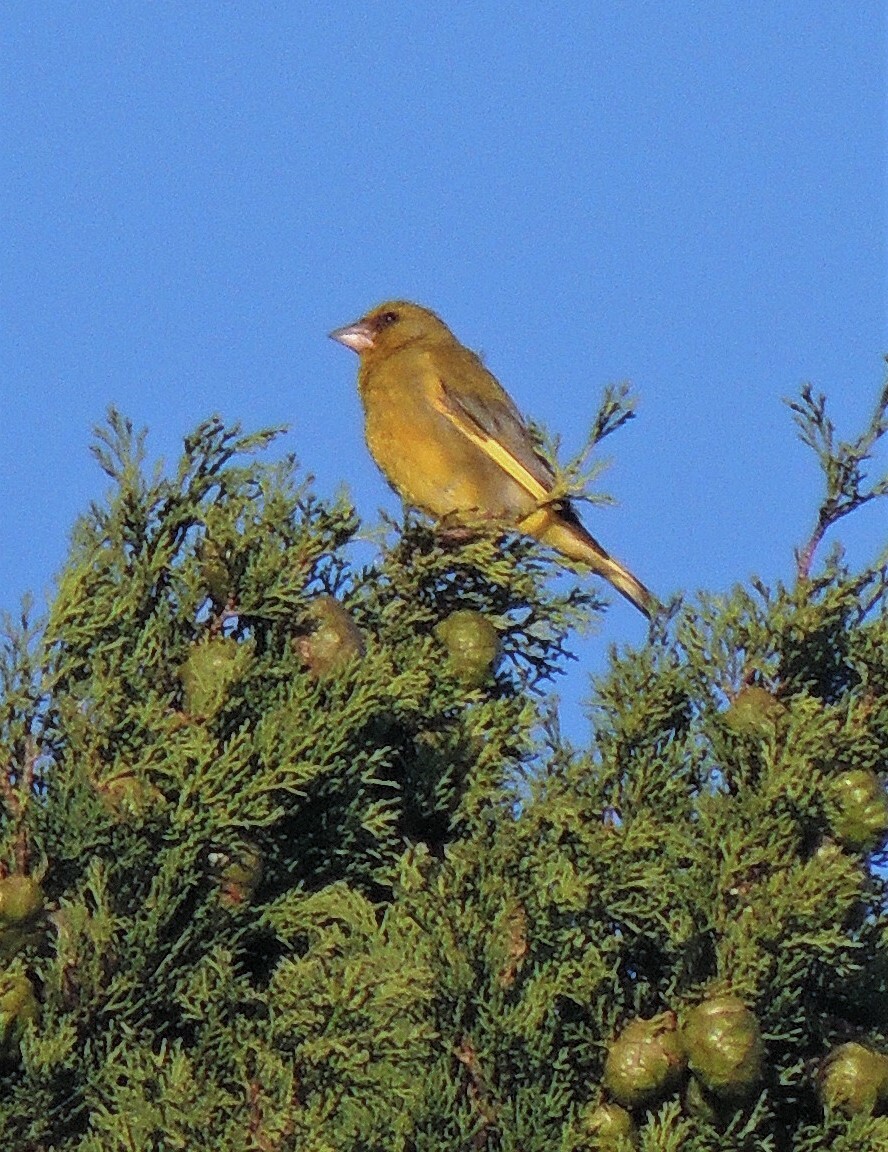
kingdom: Plantae
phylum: Tracheophyta
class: Liliopsida
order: Poales
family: Poaceae
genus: Chloris
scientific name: Chloris chloris
